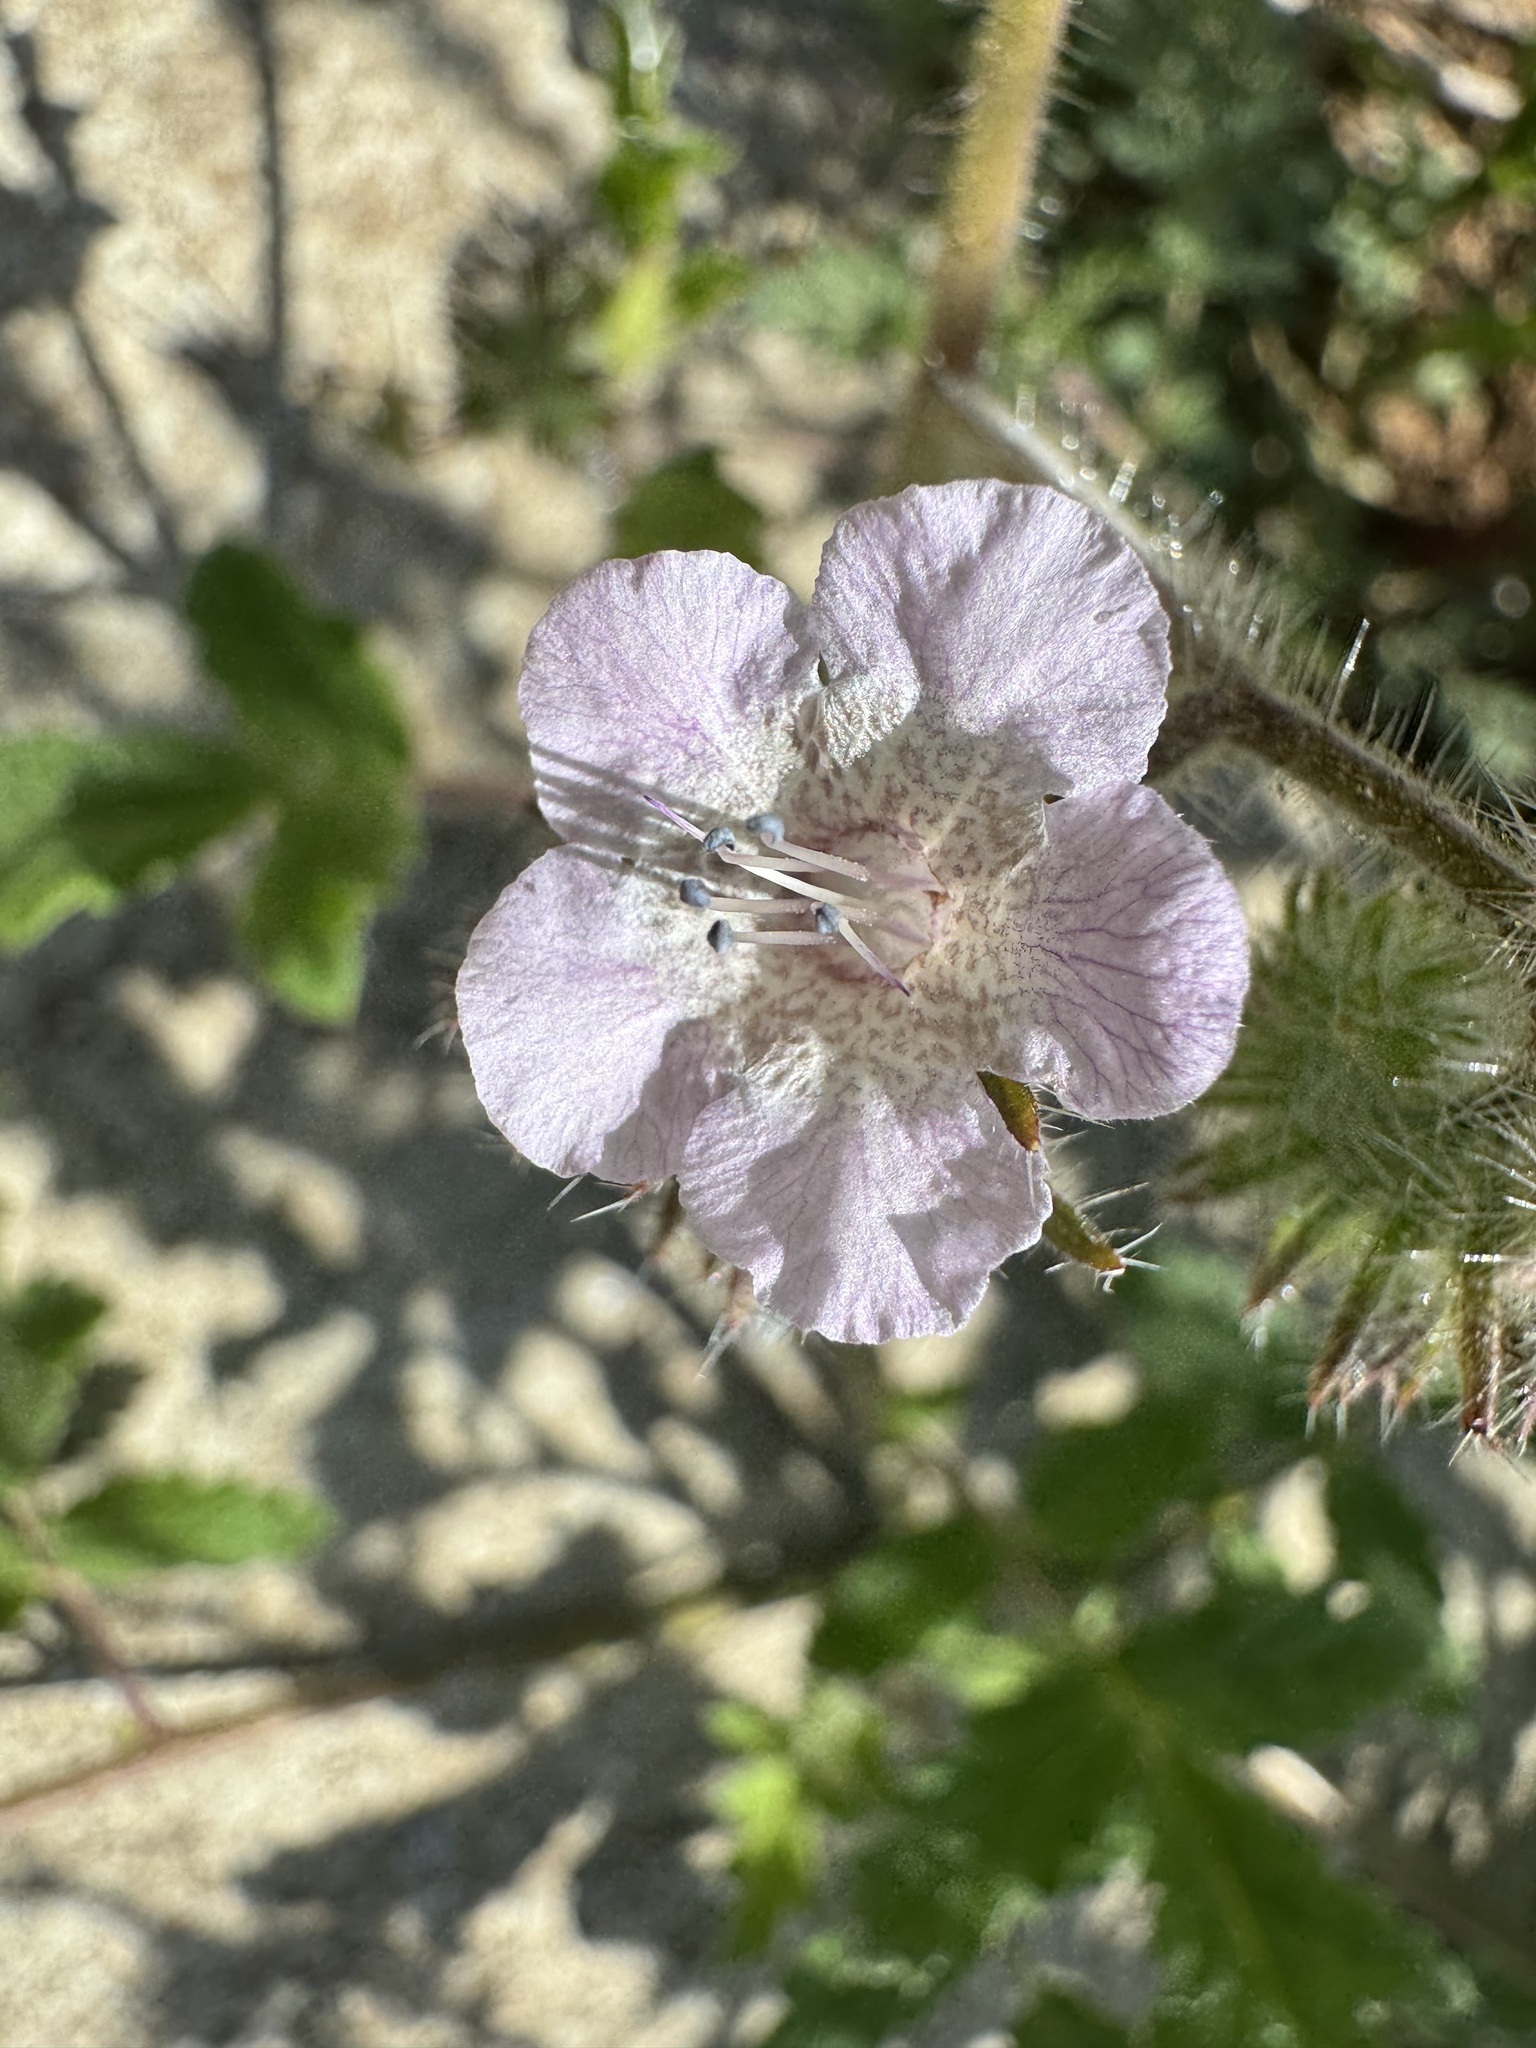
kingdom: Plantae
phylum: Tracheophyta
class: Magnoliopsida
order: Boraginales
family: Hydrophyllaceae
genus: Phacelia
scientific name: Phacelia cicutaria
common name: Caterpillar phacelia
